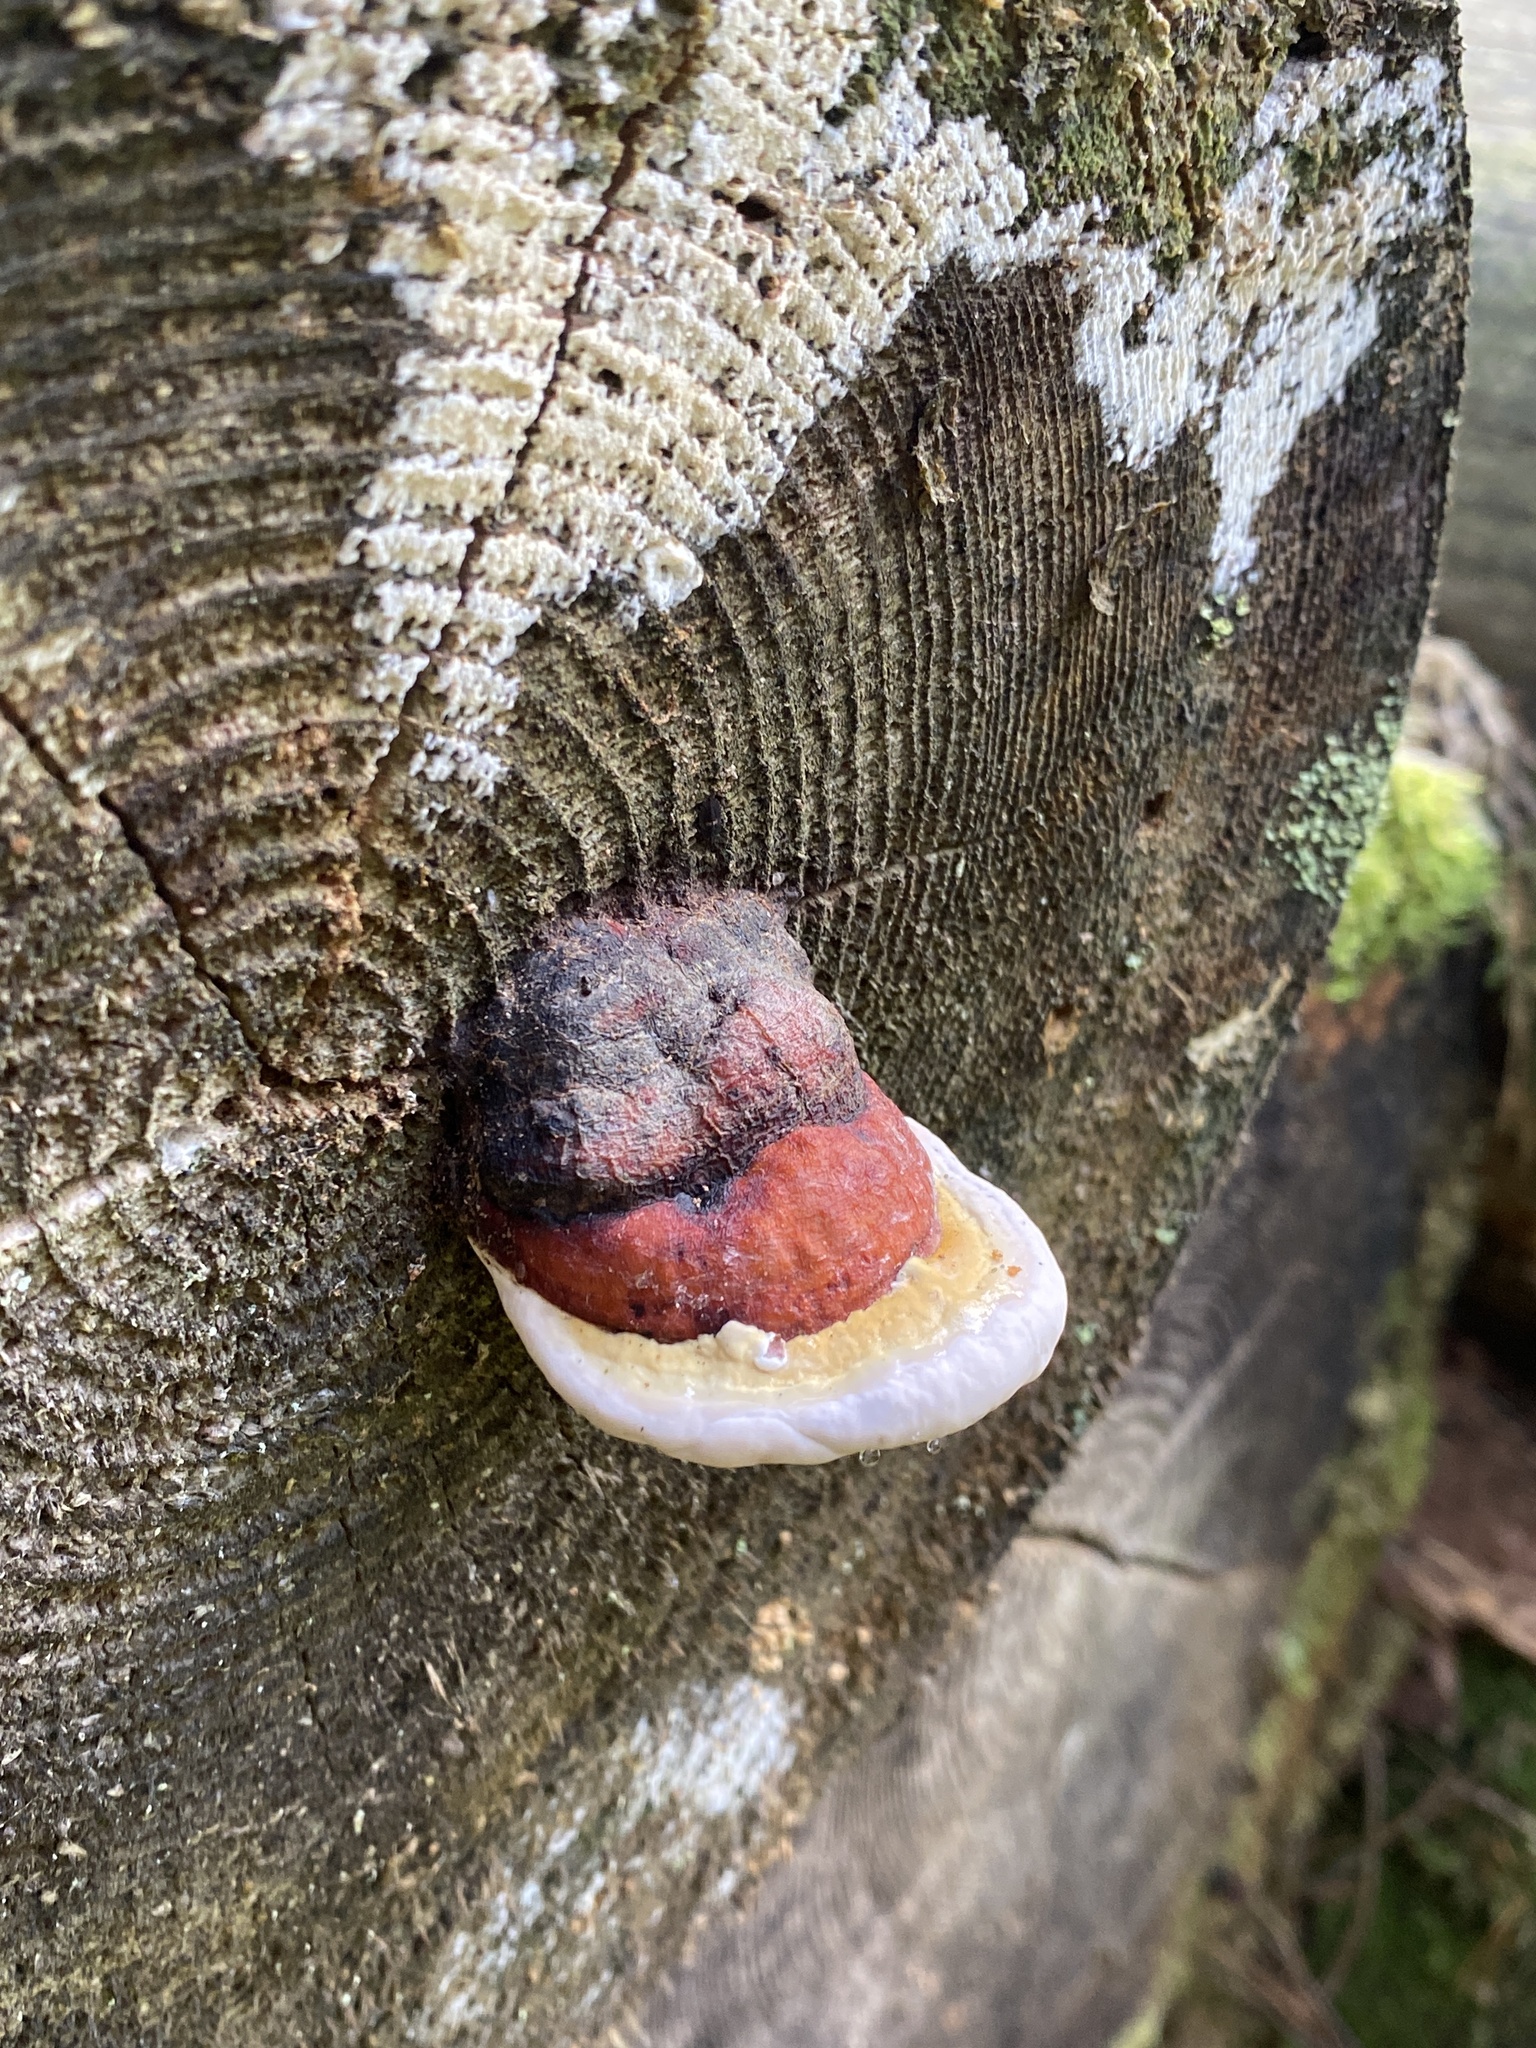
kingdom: Fungi
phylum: Basidiomycota
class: Agaricomycetes
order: Polyporales
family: Fomitopsidaceae
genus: Fomitopsis
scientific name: Fomitopsis pinicola
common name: Red-belted bracket
